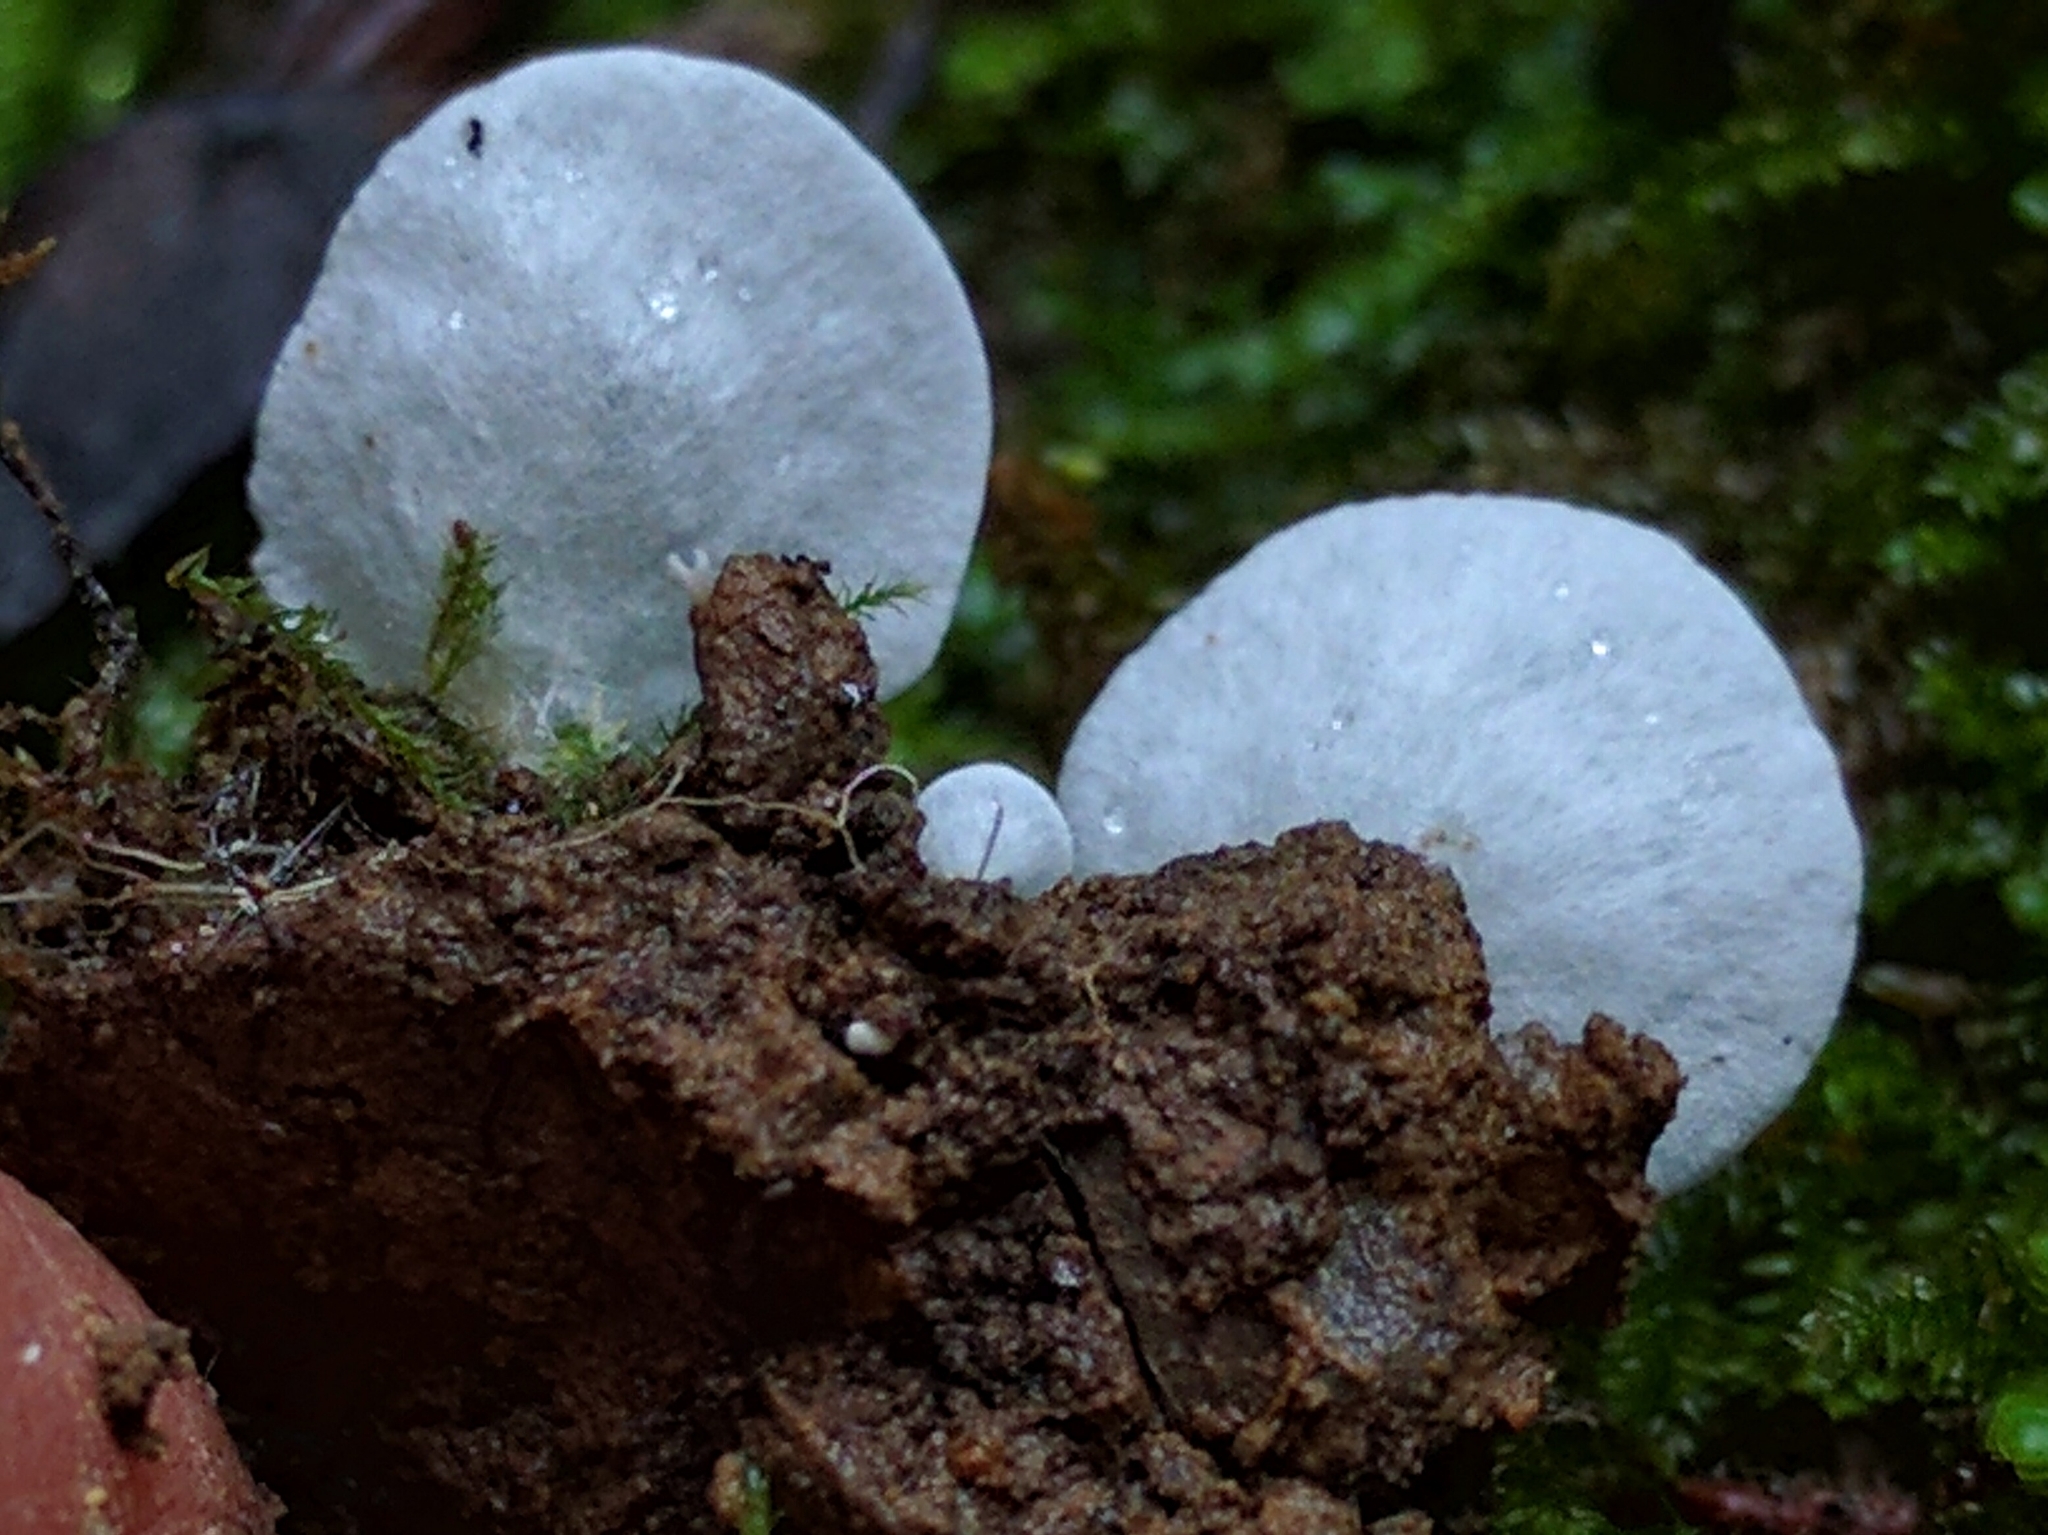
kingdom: Fungi
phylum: Basidiomycota
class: Agaricomycetes
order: Agaricales
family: Tricholomataceae
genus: Rimbachia
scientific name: Rimbachia bryophila
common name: Veined mossear
